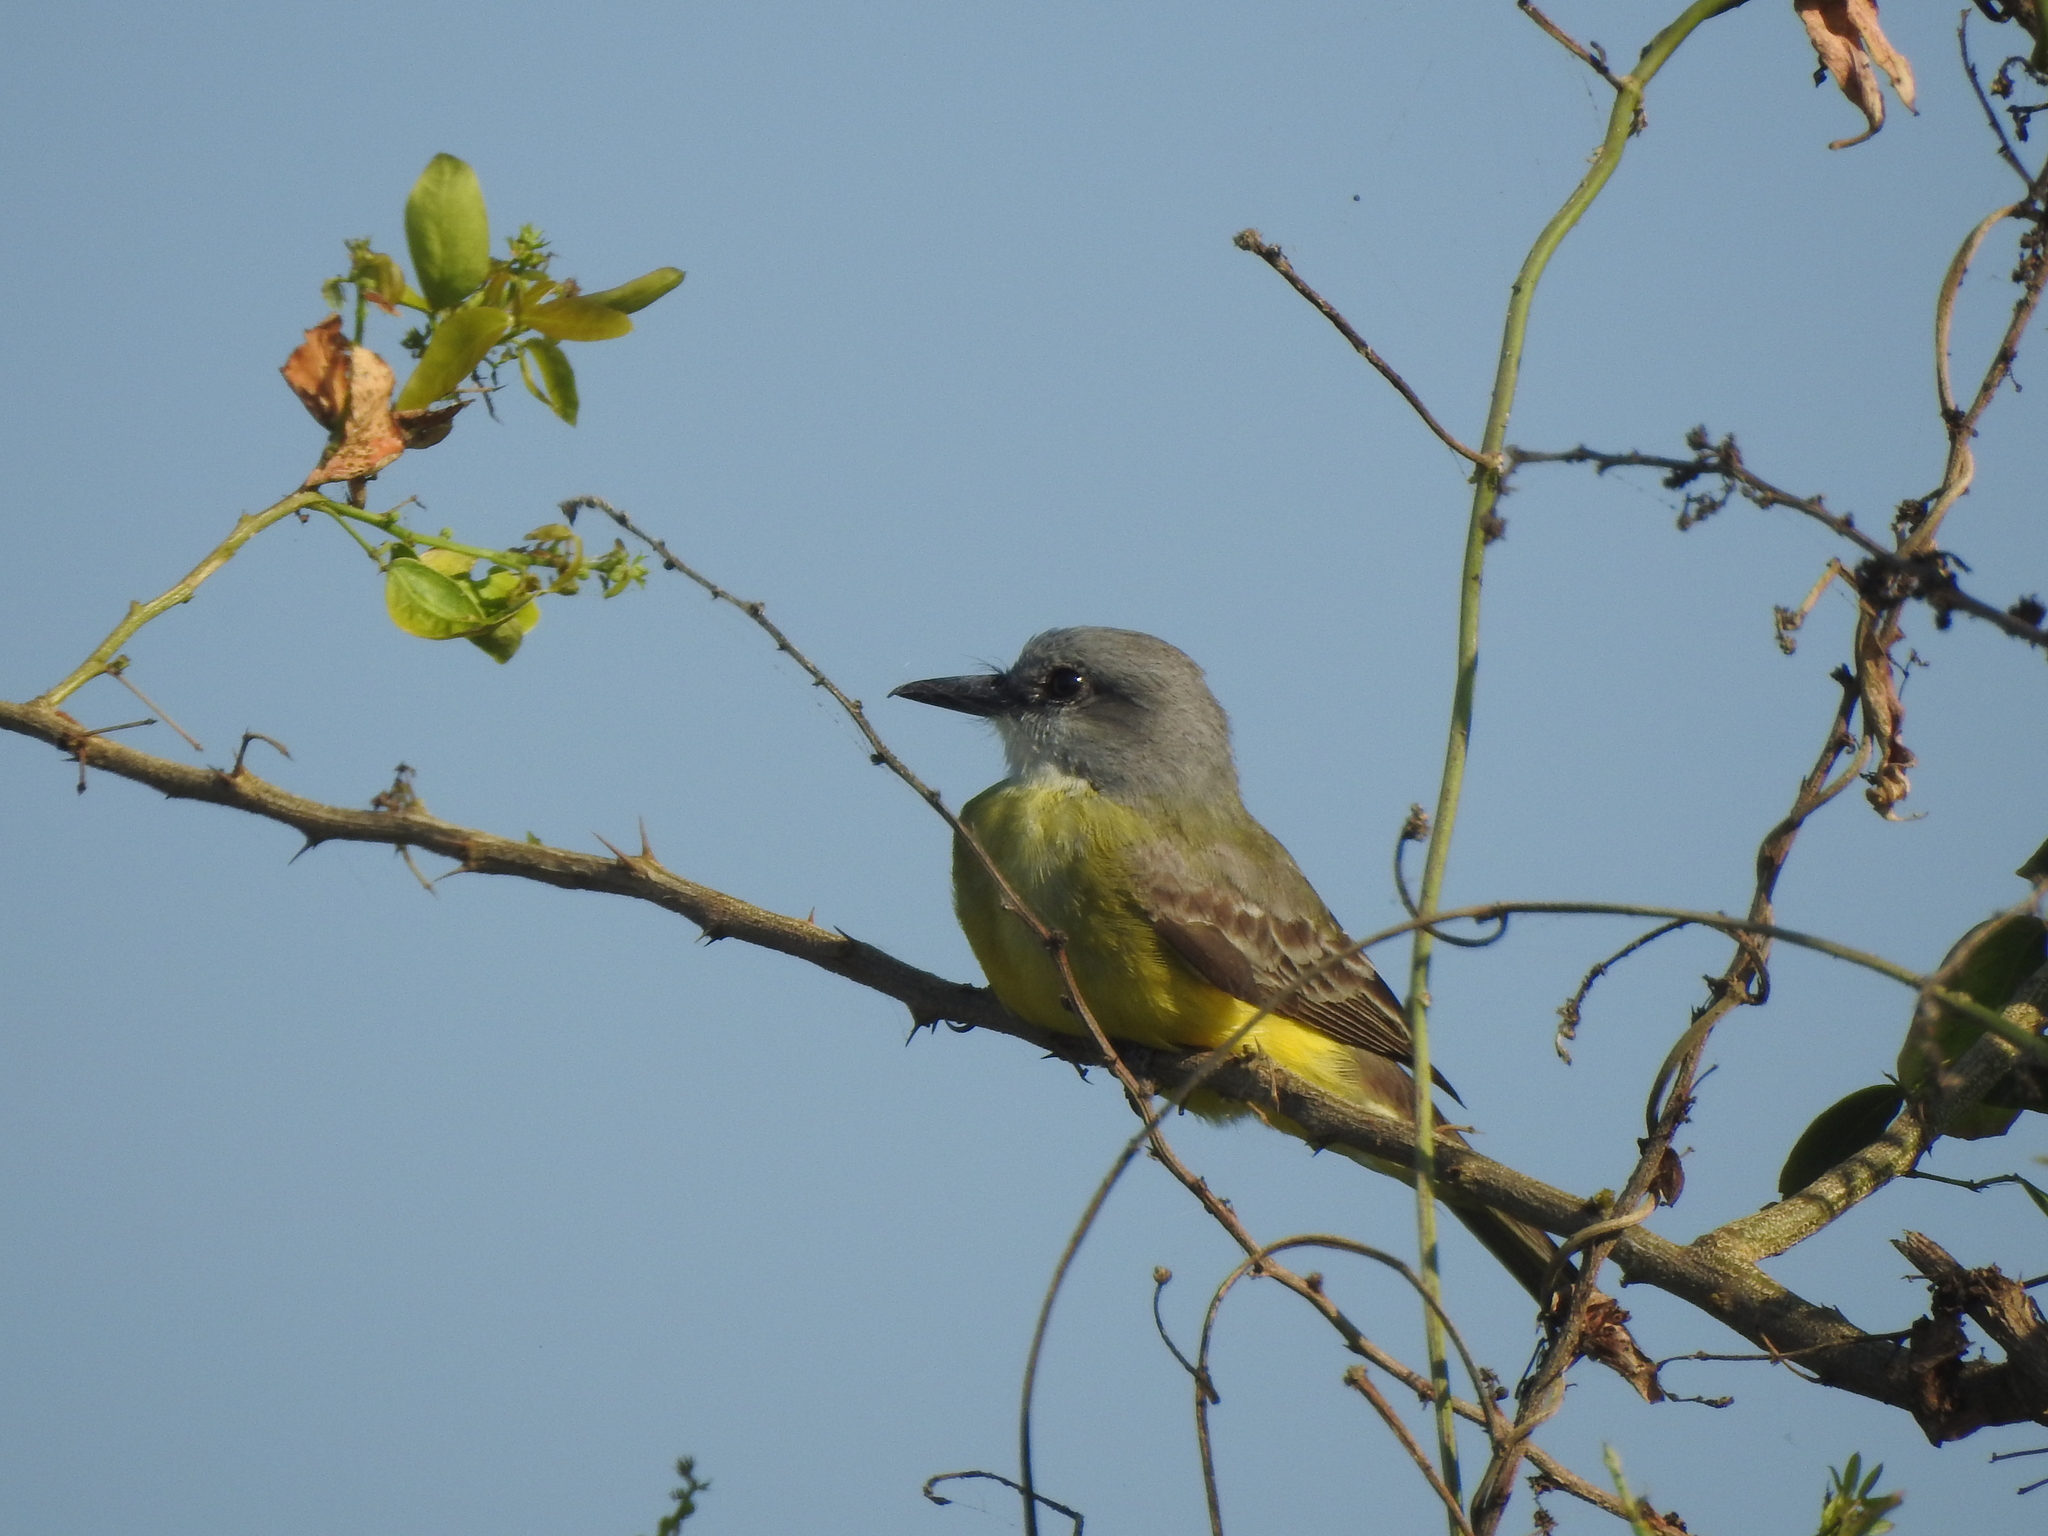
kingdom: Animalia
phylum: Chordata
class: Aves
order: Passeriformes
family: Tyrannidae
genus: Tyrannus
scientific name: Tyrannus melancholicus
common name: Tropical kingbird
